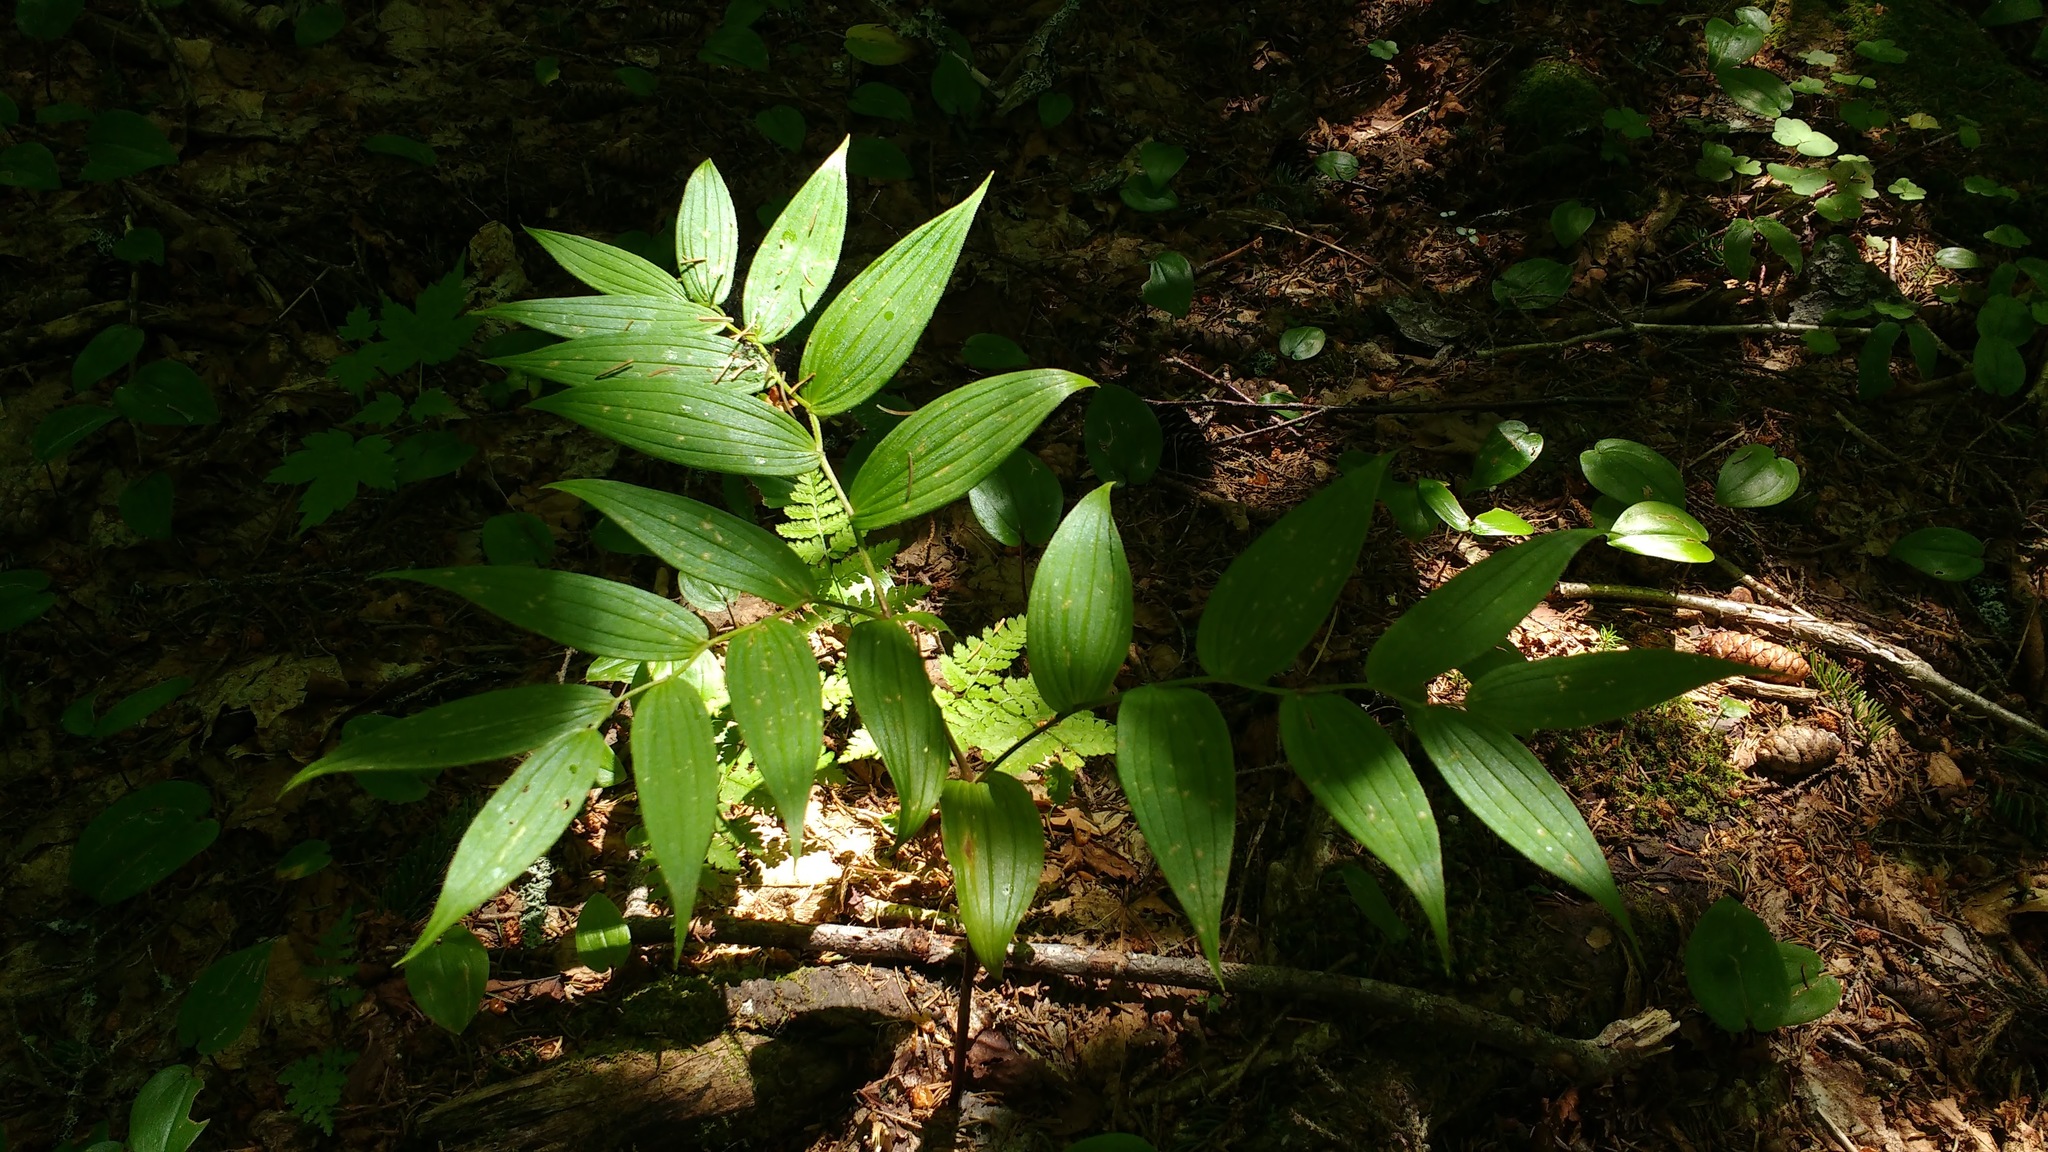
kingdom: Plantae
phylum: Tracheophyta
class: Liliopsida
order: Liliales
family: Liliaceae
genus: Streptopus
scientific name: Streptopus lanceolatus
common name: Rose mandarin
